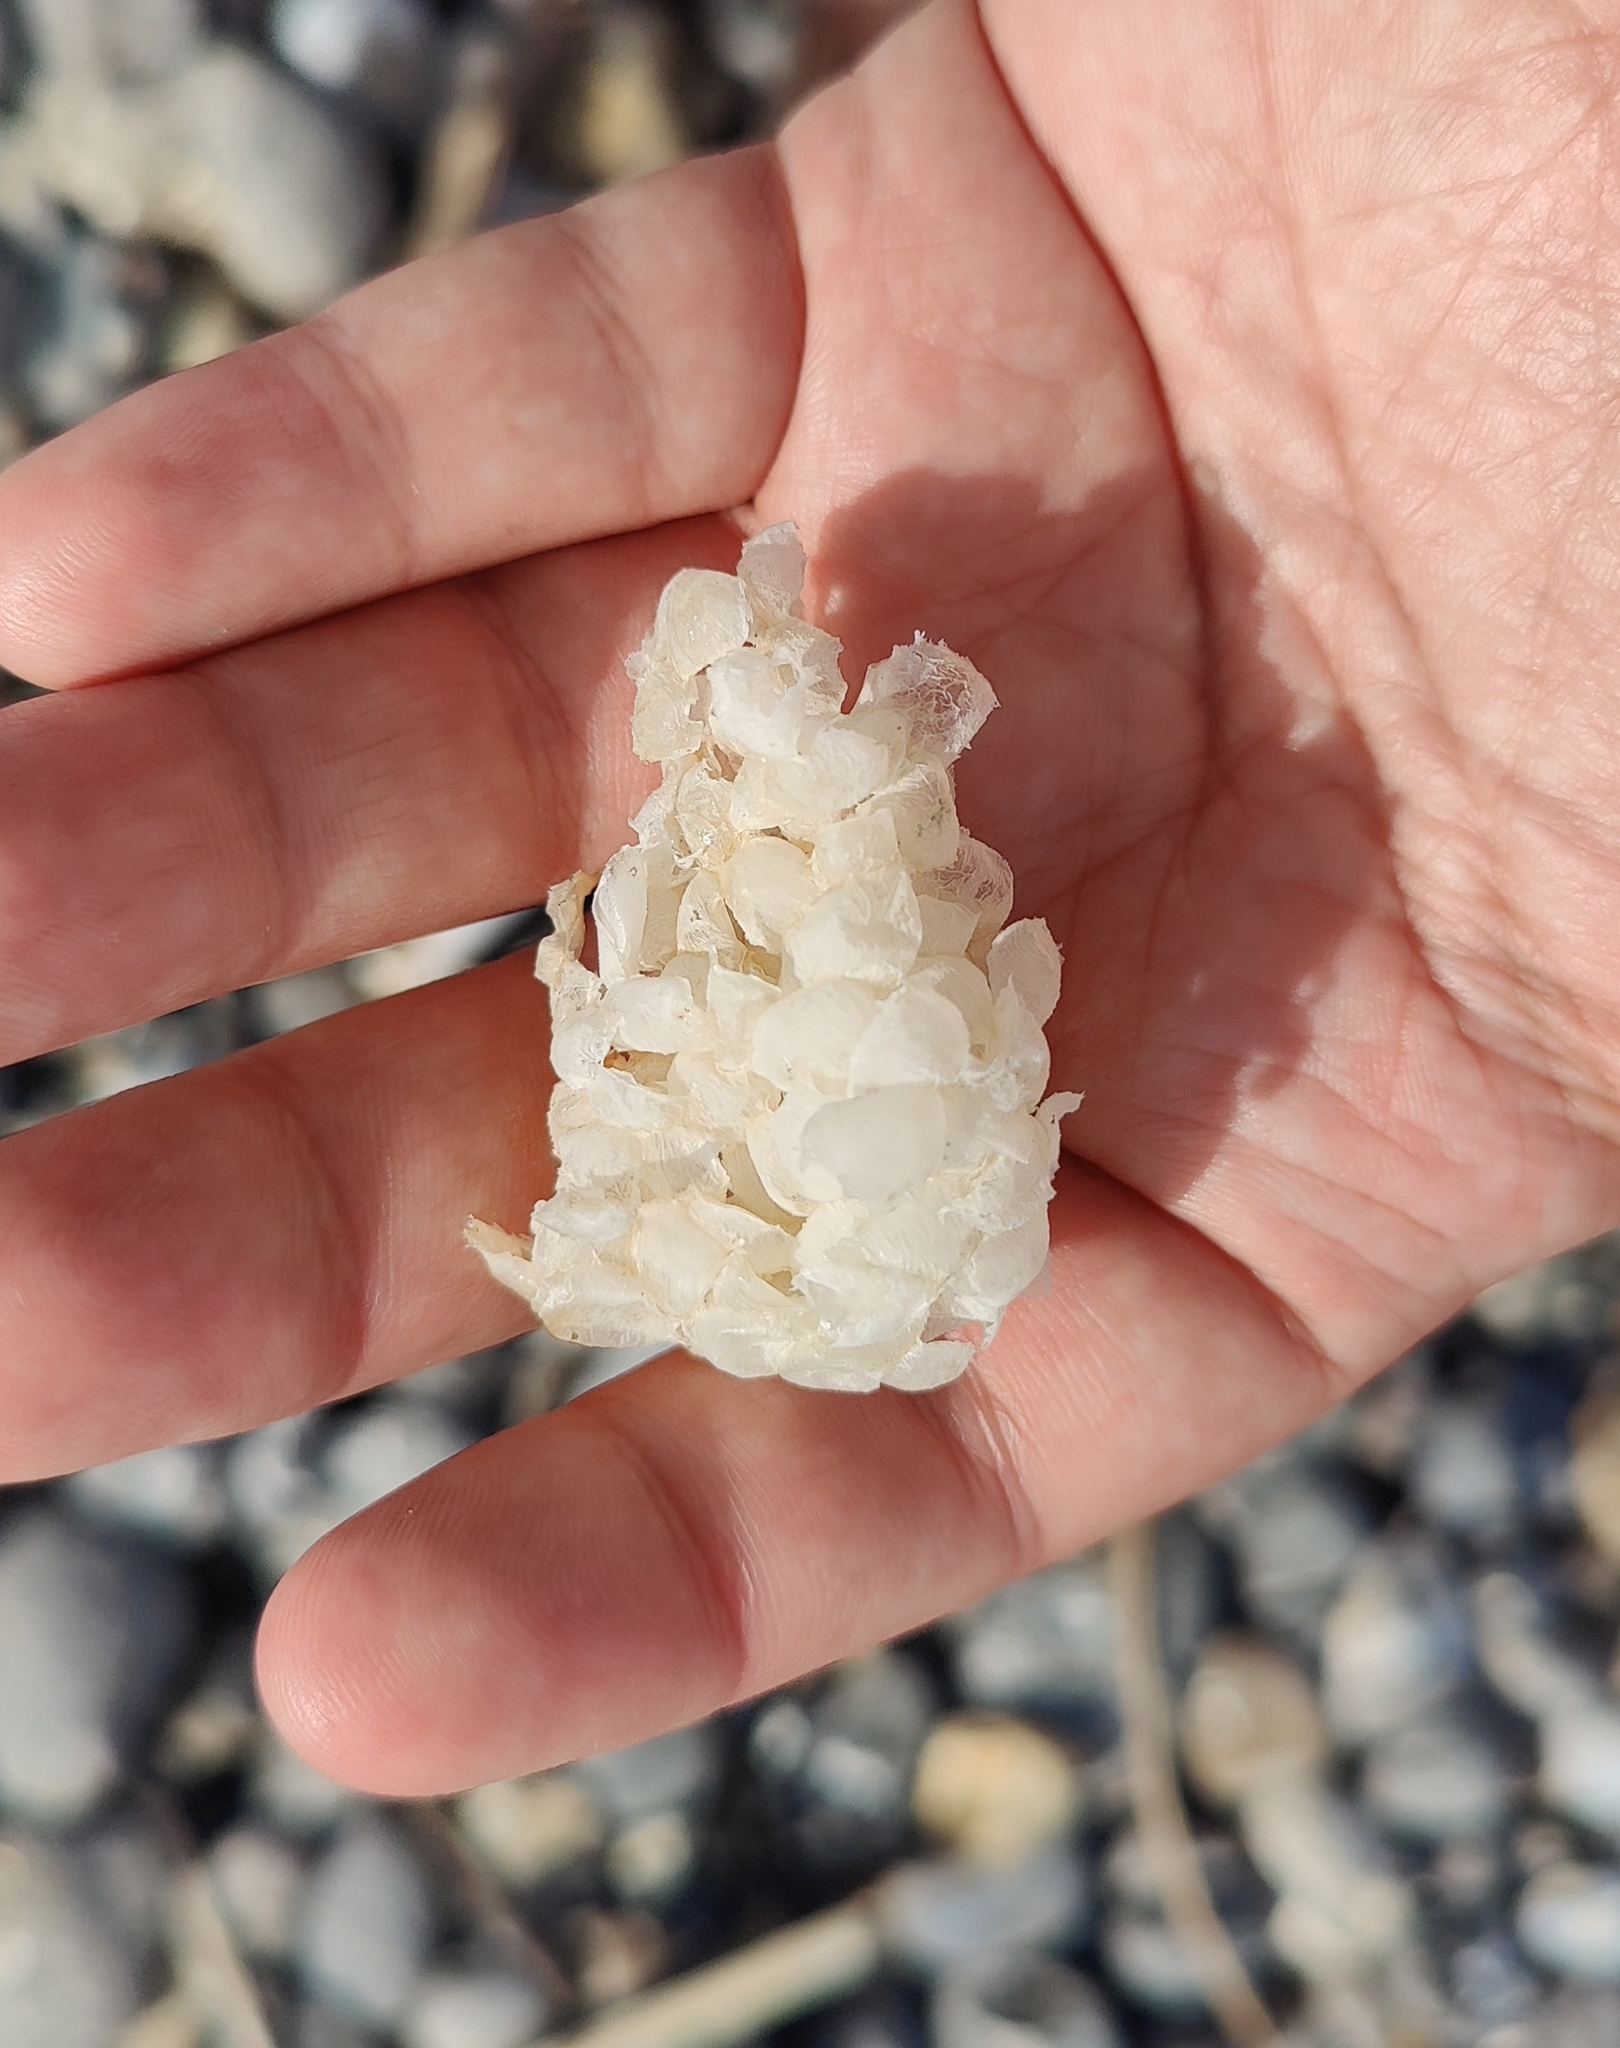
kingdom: Animalia
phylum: Mollusca
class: Gastropoda
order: Neogastropoda
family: Buccinidae
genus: Buccinum
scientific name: Buccinum undatum
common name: Common whelk
